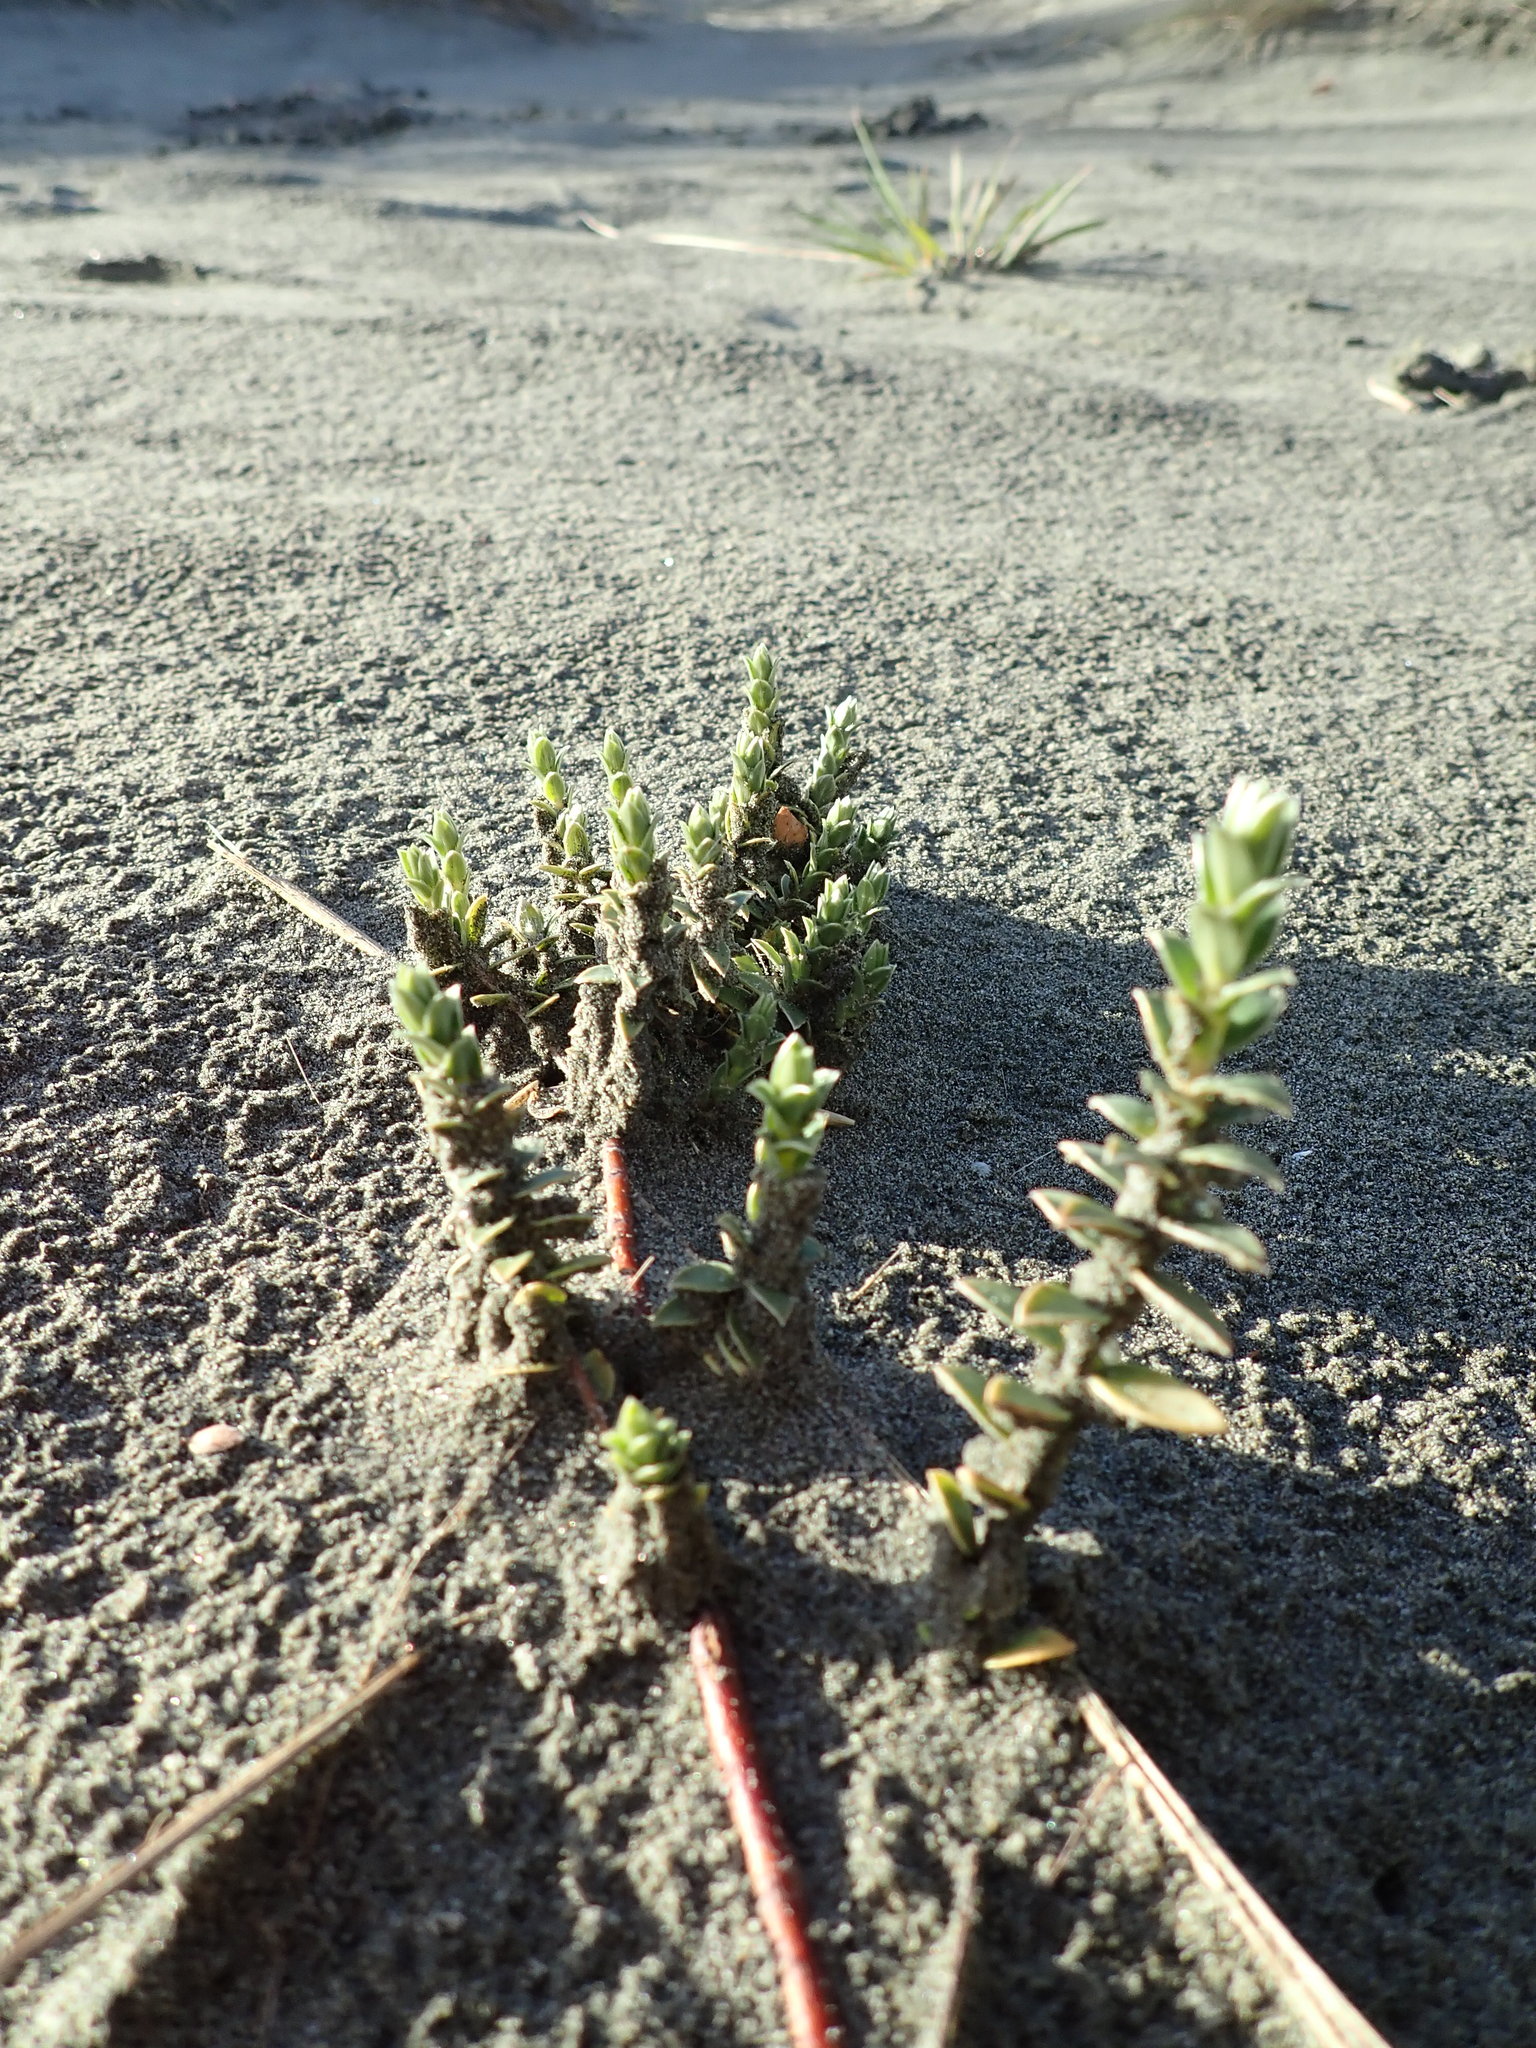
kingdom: Plantae
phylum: Tracheophyta
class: Magnoliopsida
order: Malvales
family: Thymelaeaceae
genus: Pimelea
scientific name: Pimelea villosa
